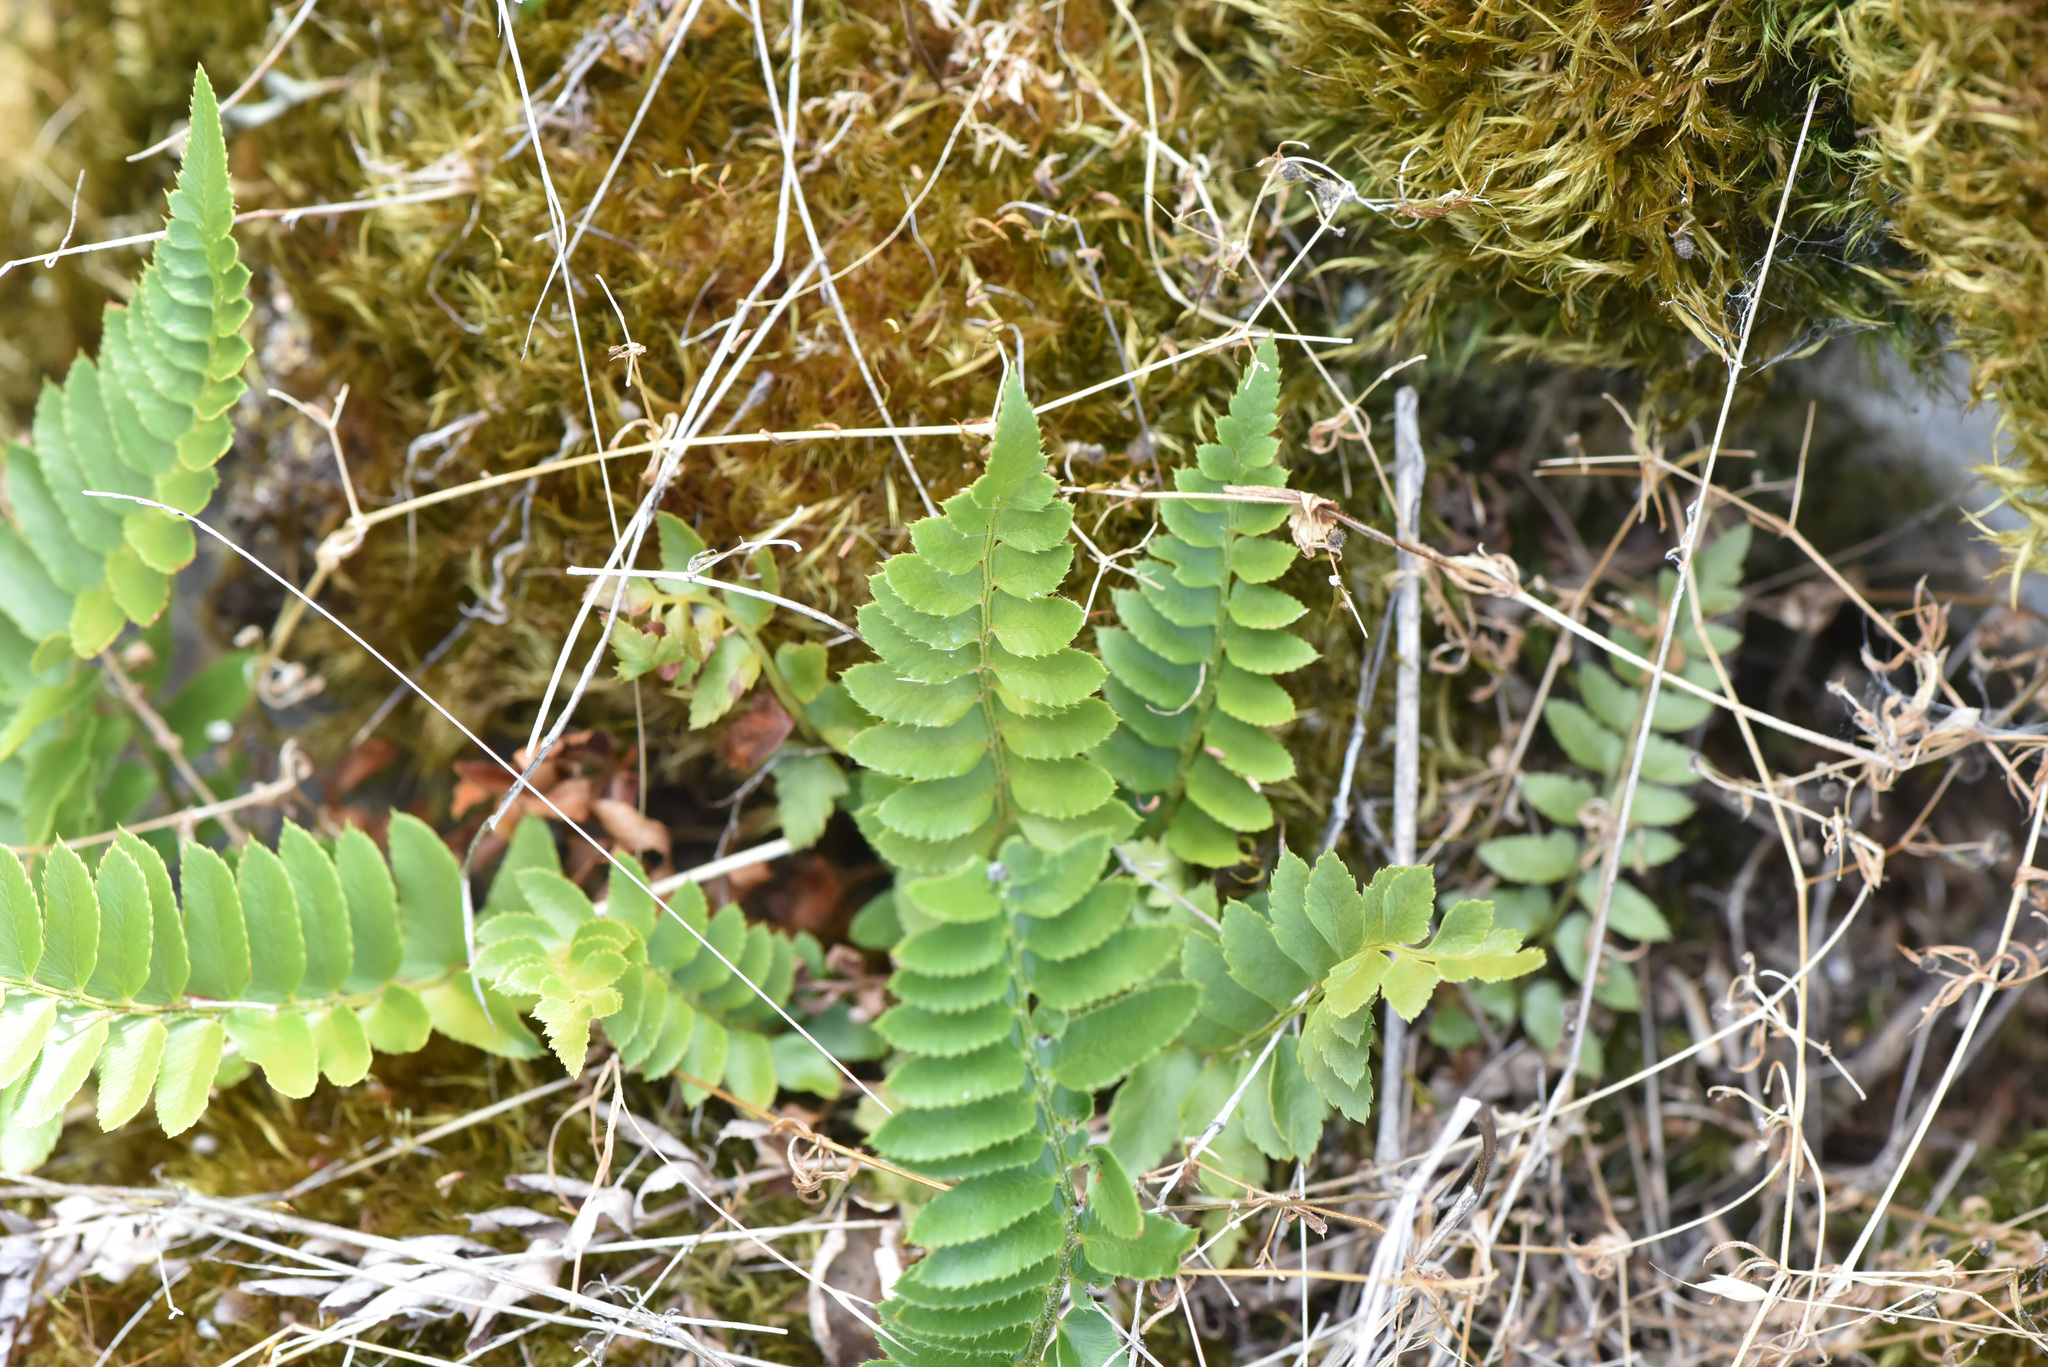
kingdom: Plantae
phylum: Tracheophyta
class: Polypodiopsida
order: Polypodiales
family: Dryopteridaceae
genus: Polystichum
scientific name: Polystichum imbricans
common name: Dwarf western sword fern
